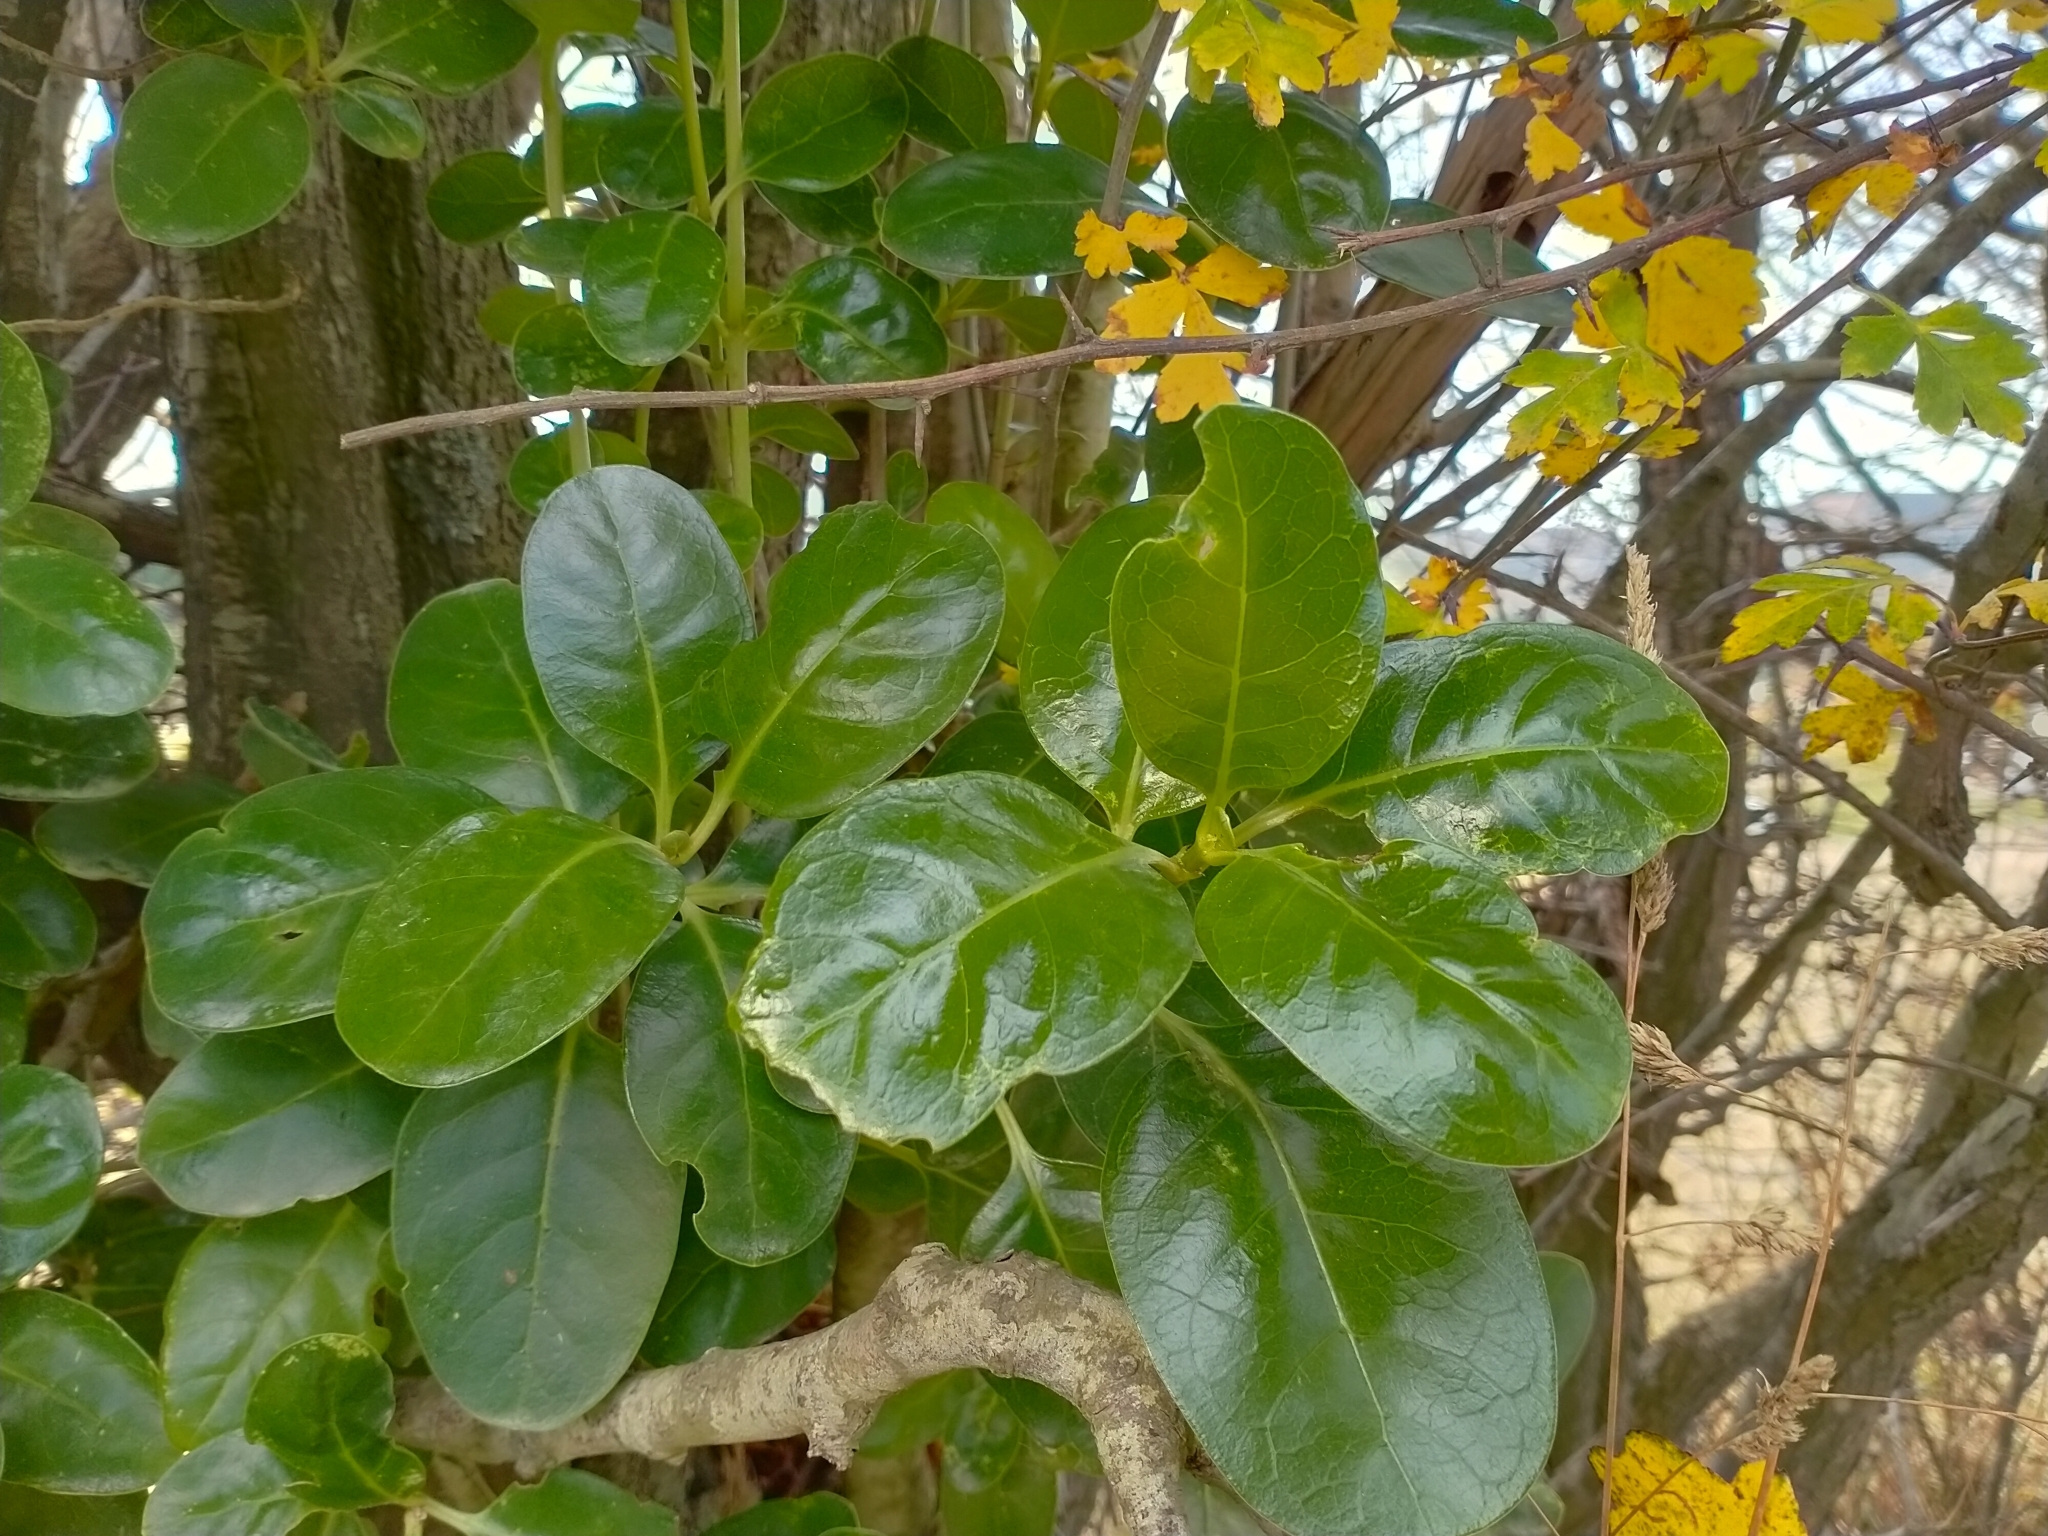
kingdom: Plantae
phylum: Tracheophyta
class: Magnoliopsida
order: Gentianales
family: Rubiaceae
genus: Coprosma
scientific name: Coprosma repens
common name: Tree bedstraw
